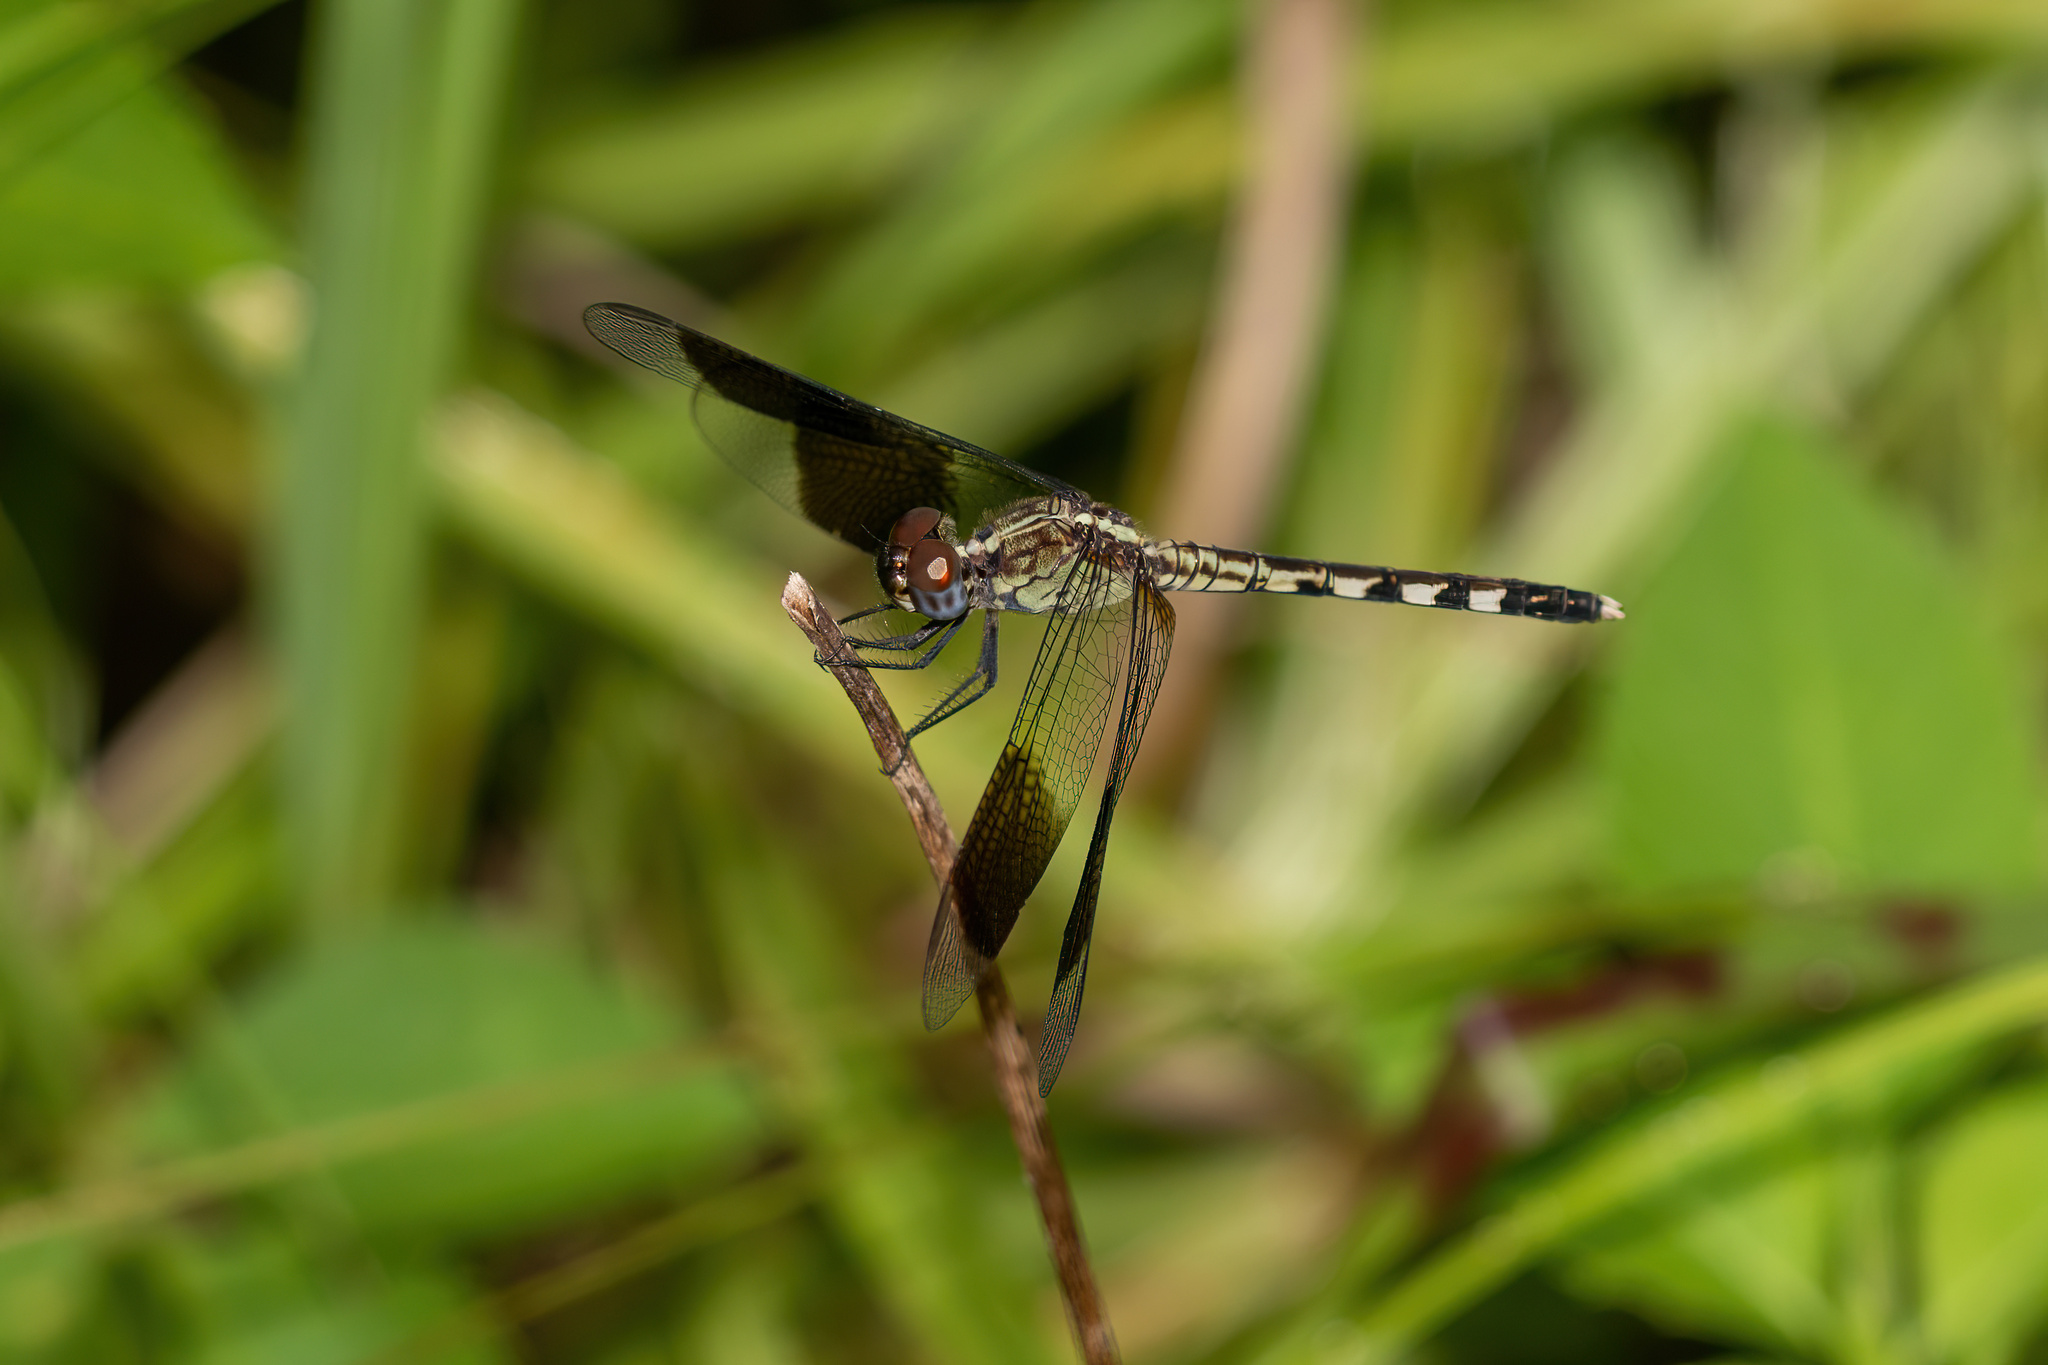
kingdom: Animalia
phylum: Arthropoda
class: Insecta
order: Odonata
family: Libellulidae
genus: Erythrodiplax
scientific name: Erythrodiplax umbrata
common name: Band-winged dragonlet
